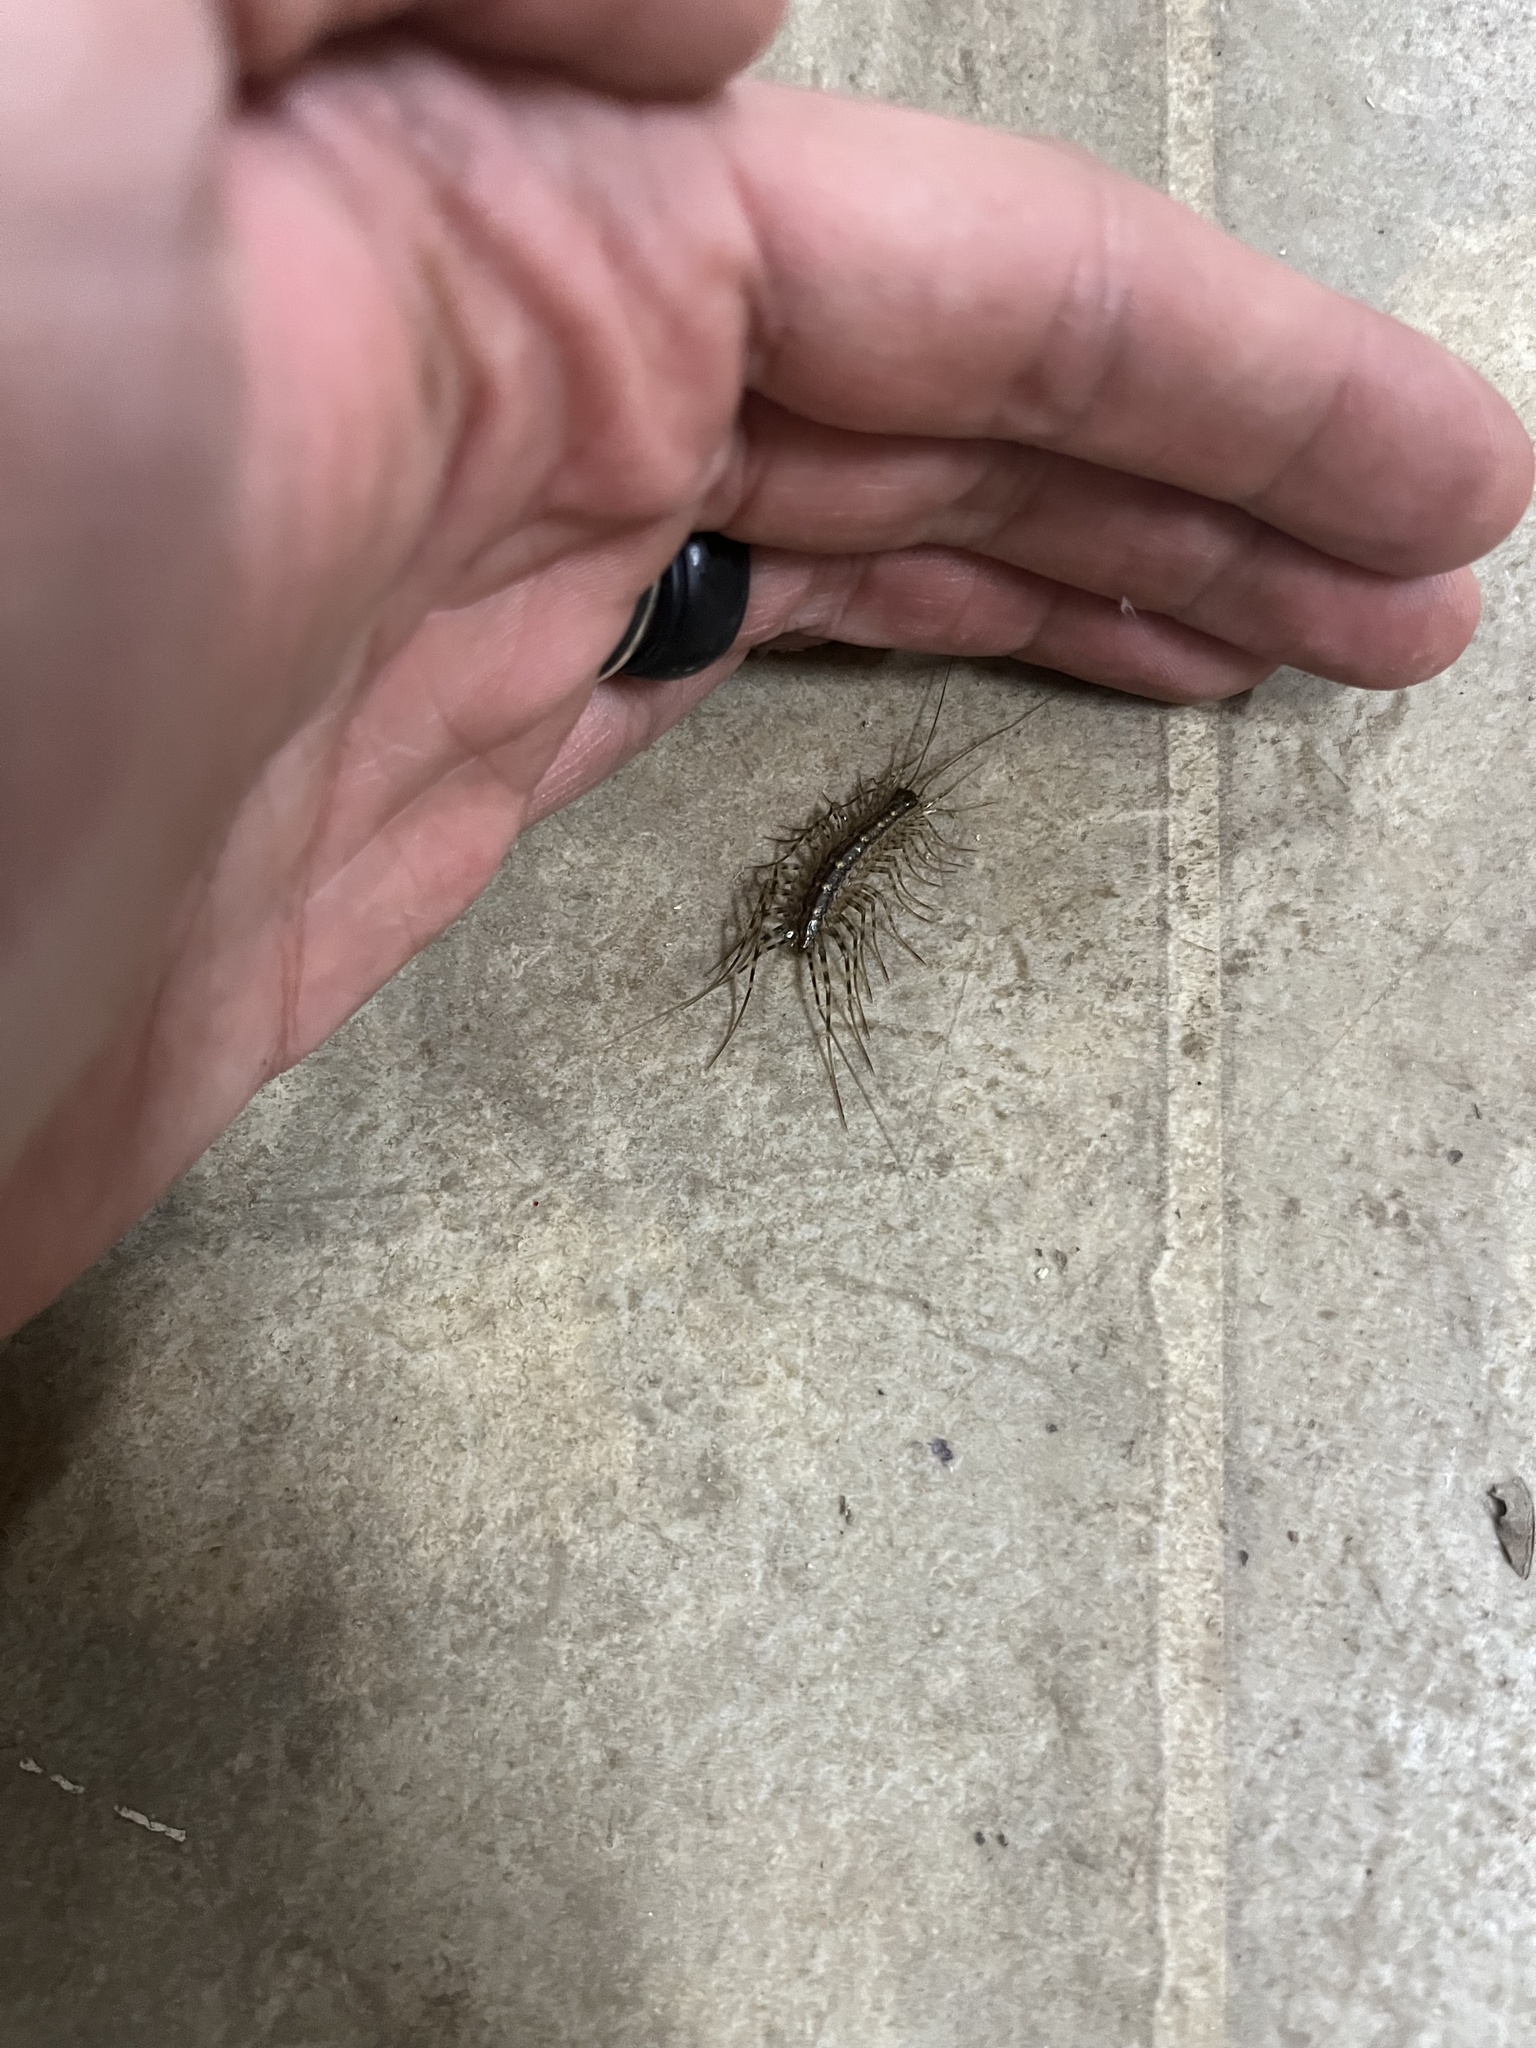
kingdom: Animalia
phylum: Arthropoda
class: Chilopoda
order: Scutigeromorpha
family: Scutigeridae
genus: Scutigera
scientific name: Scutigera coleoptrata
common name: House centipede
